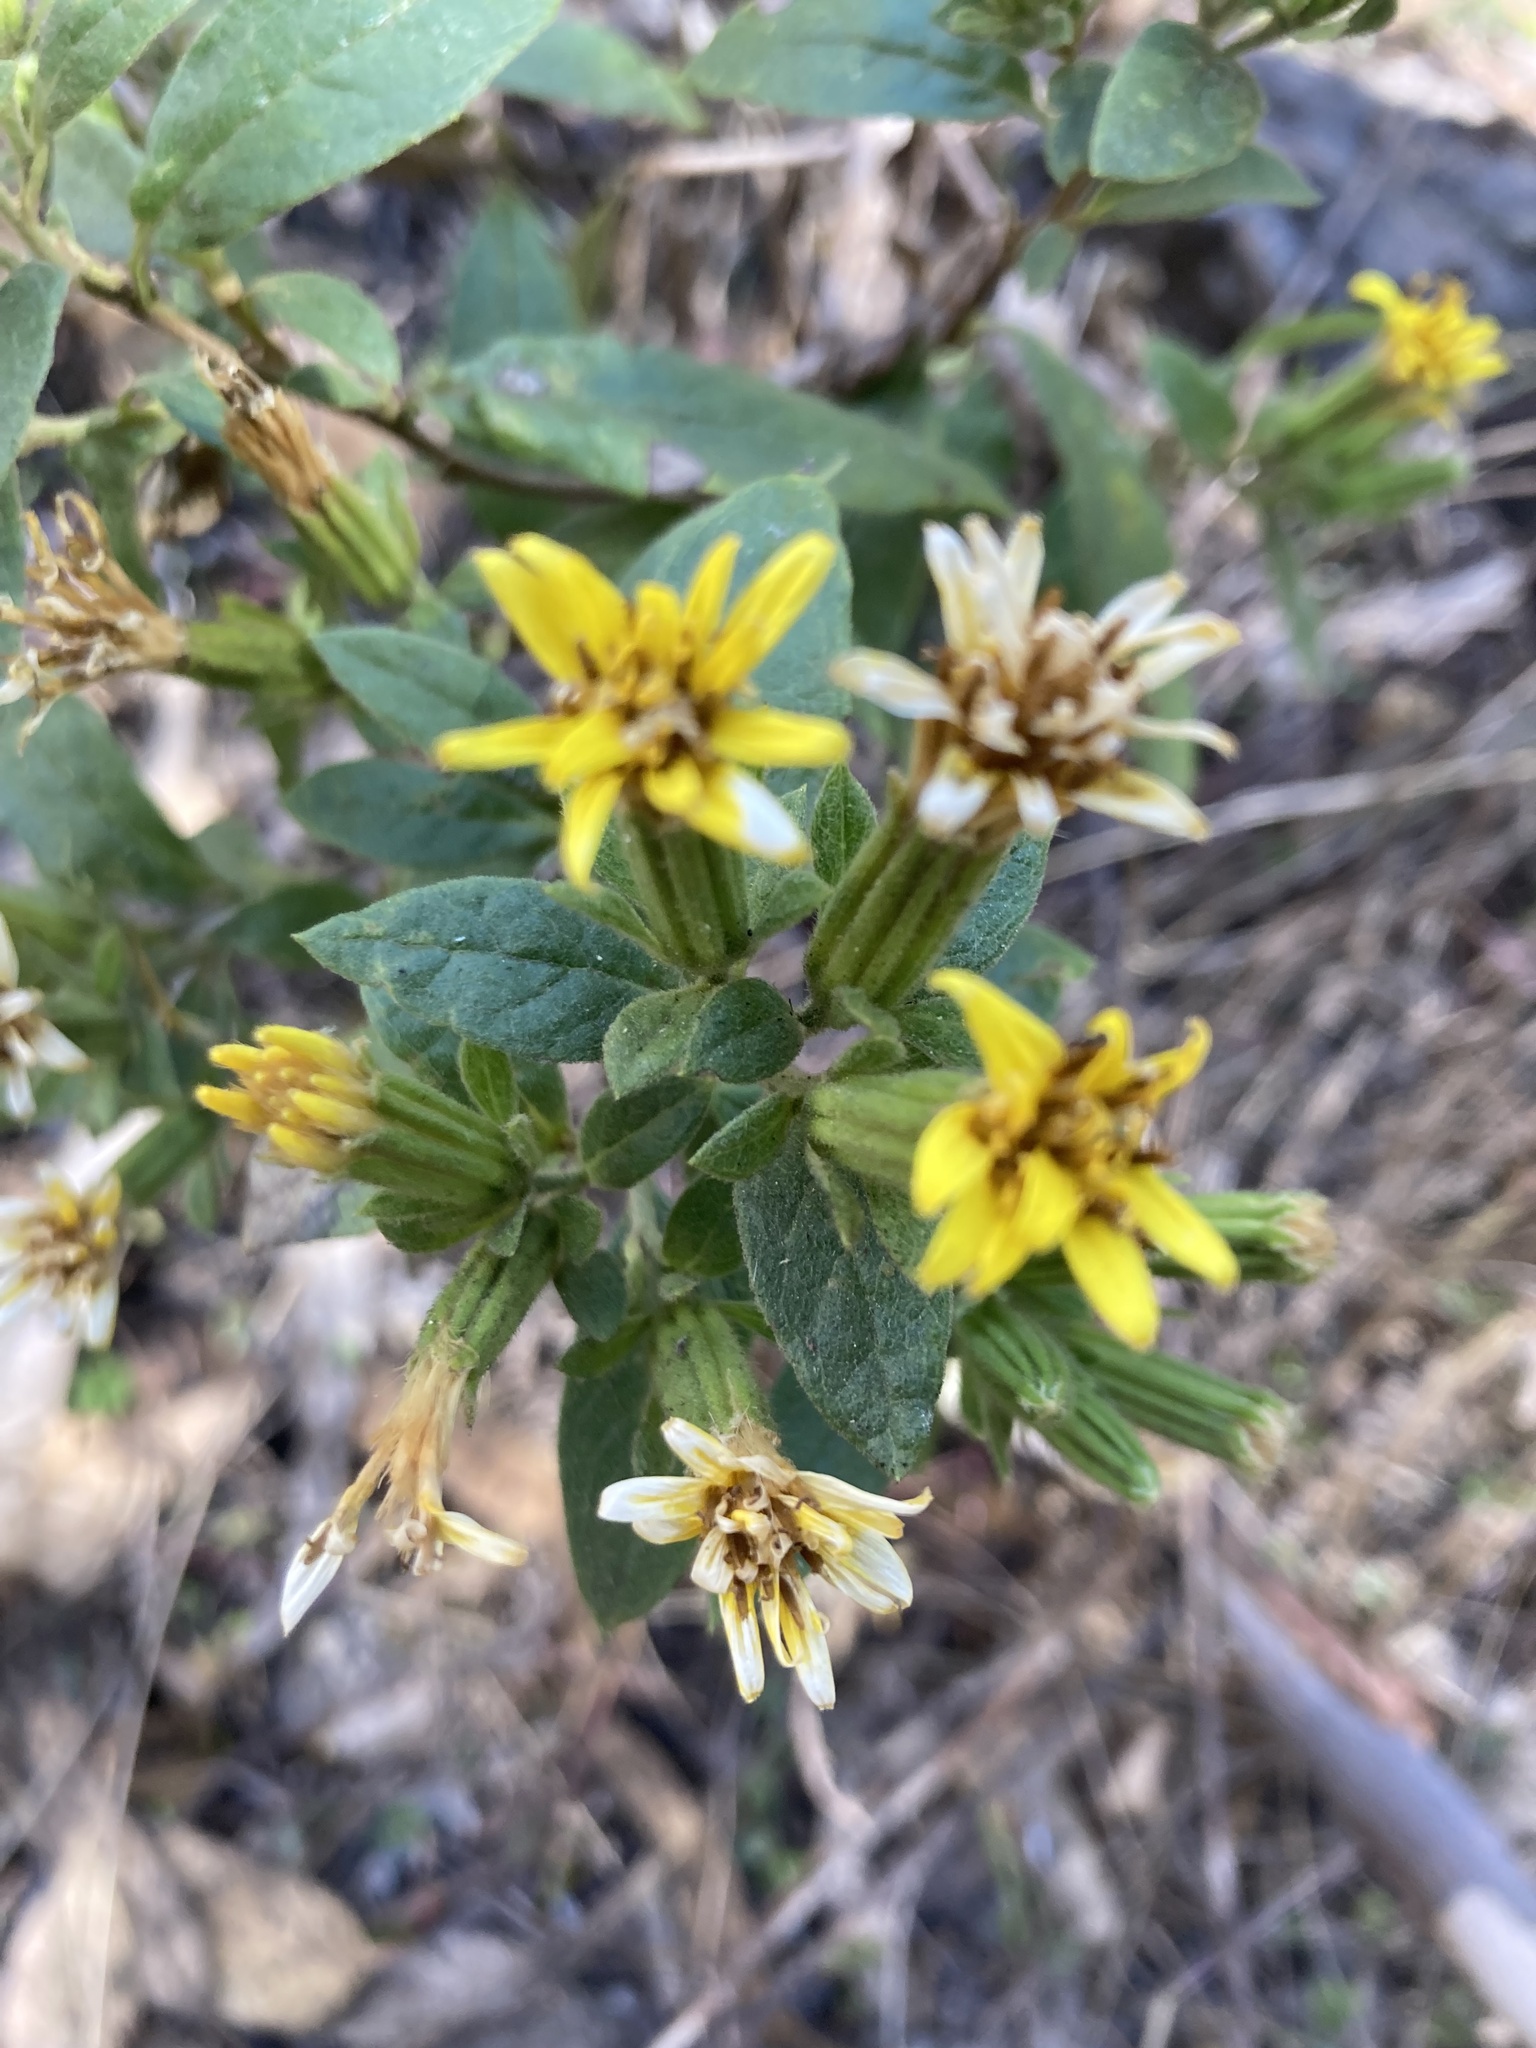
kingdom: Plantae
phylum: Tracheophyta
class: Magnoliopsida
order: Asterales
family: Asteraceae
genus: Trixis
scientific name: Trixis inula
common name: Tropical threefold
